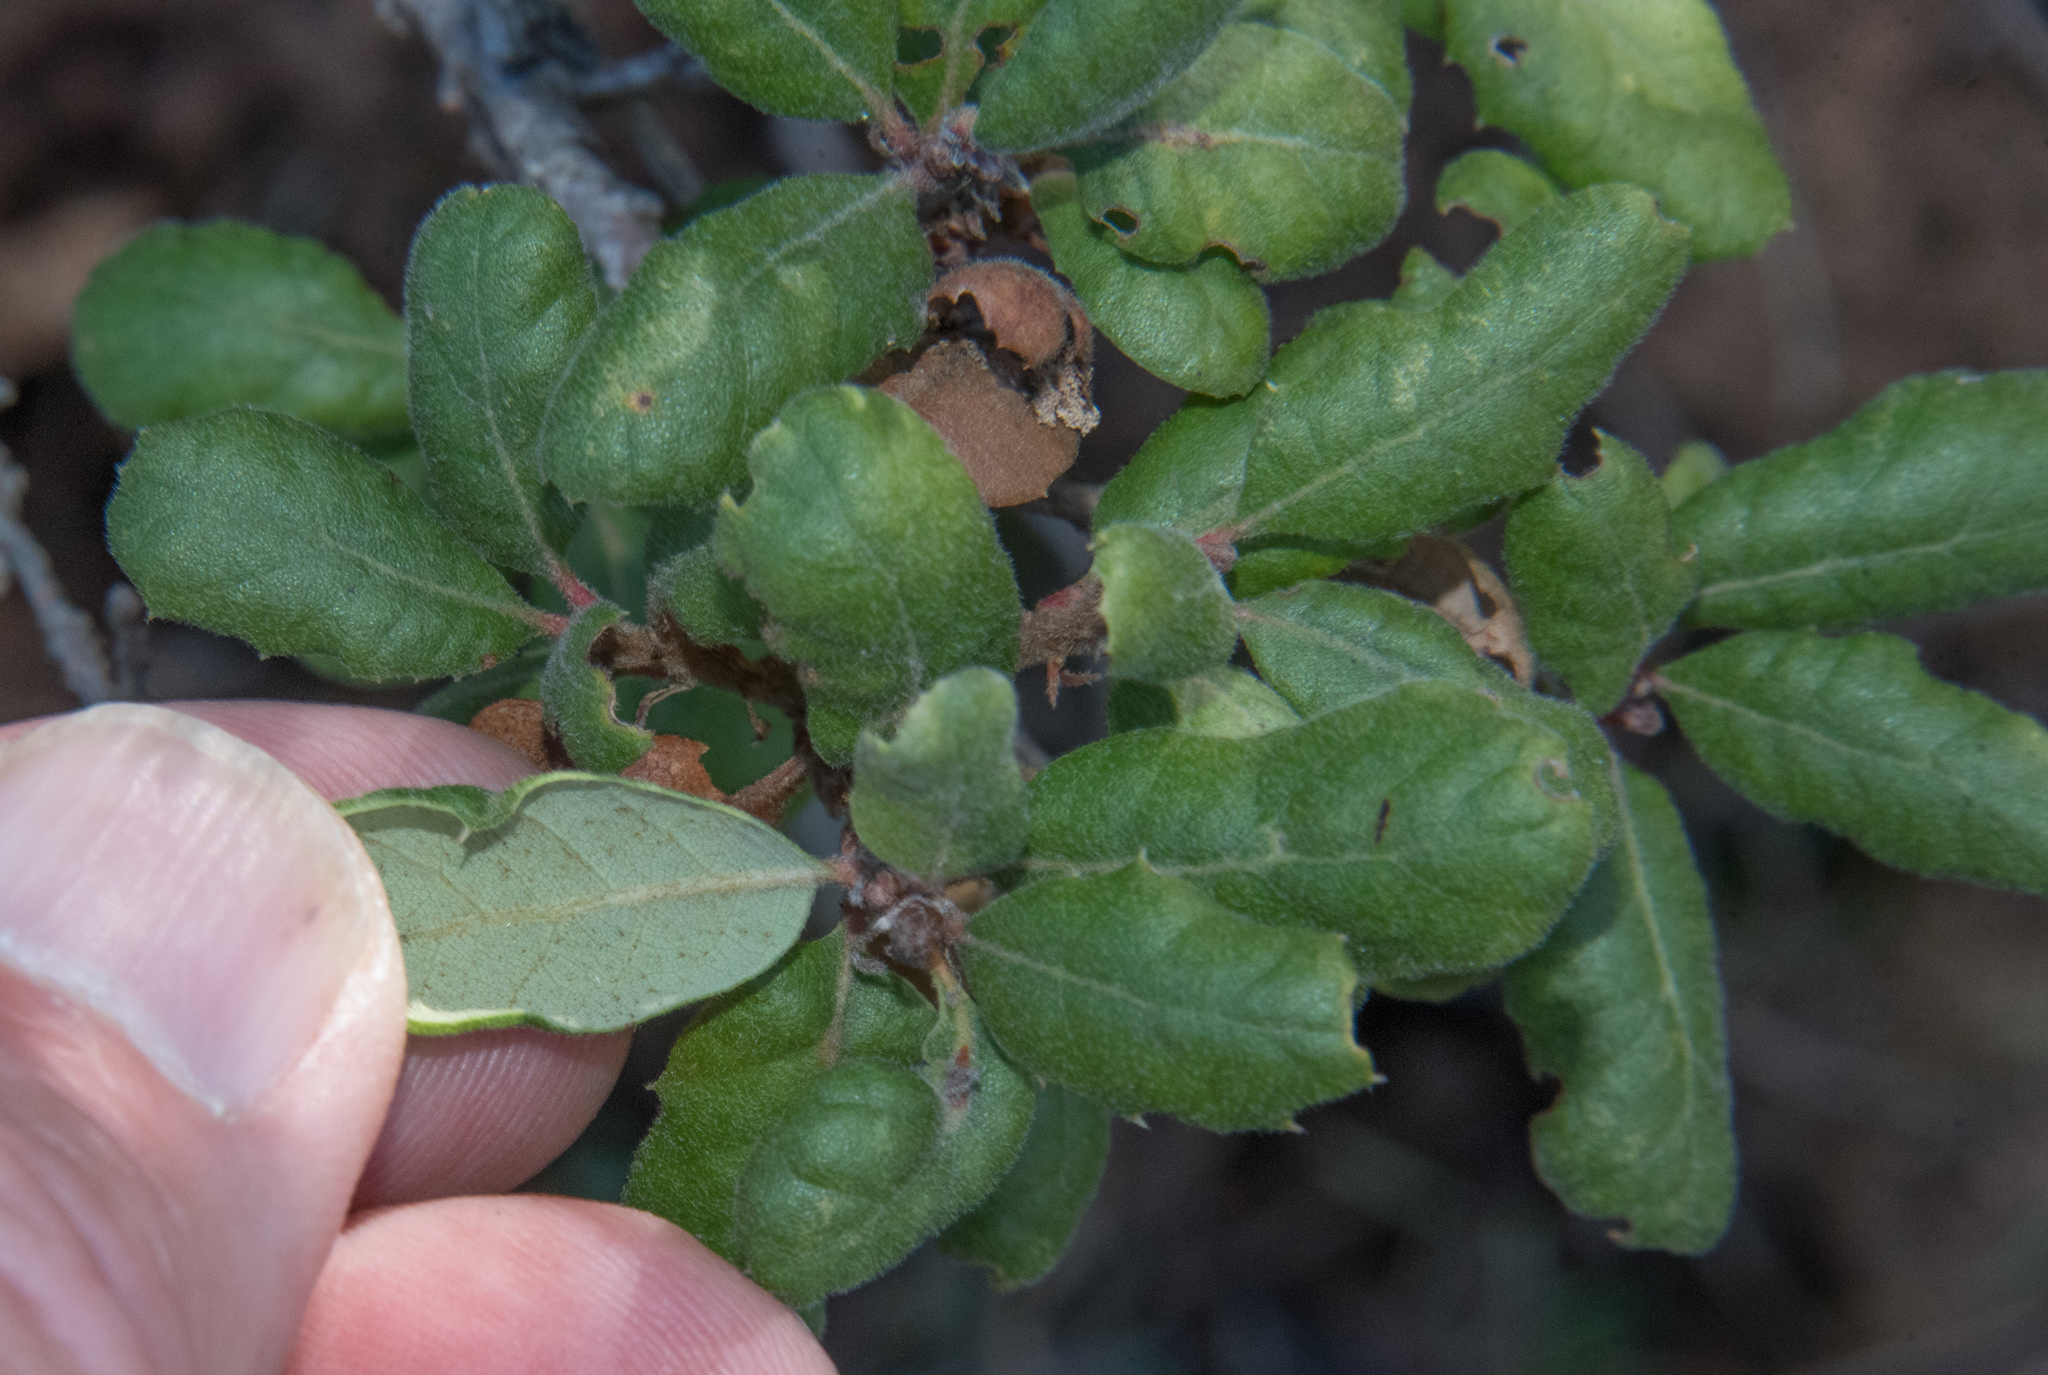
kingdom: Plantae
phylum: Tracheophyta
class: Magnoliopsida
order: Fagales
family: Fagaceae
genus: Quercus
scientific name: Quercus durata
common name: Leather oak
